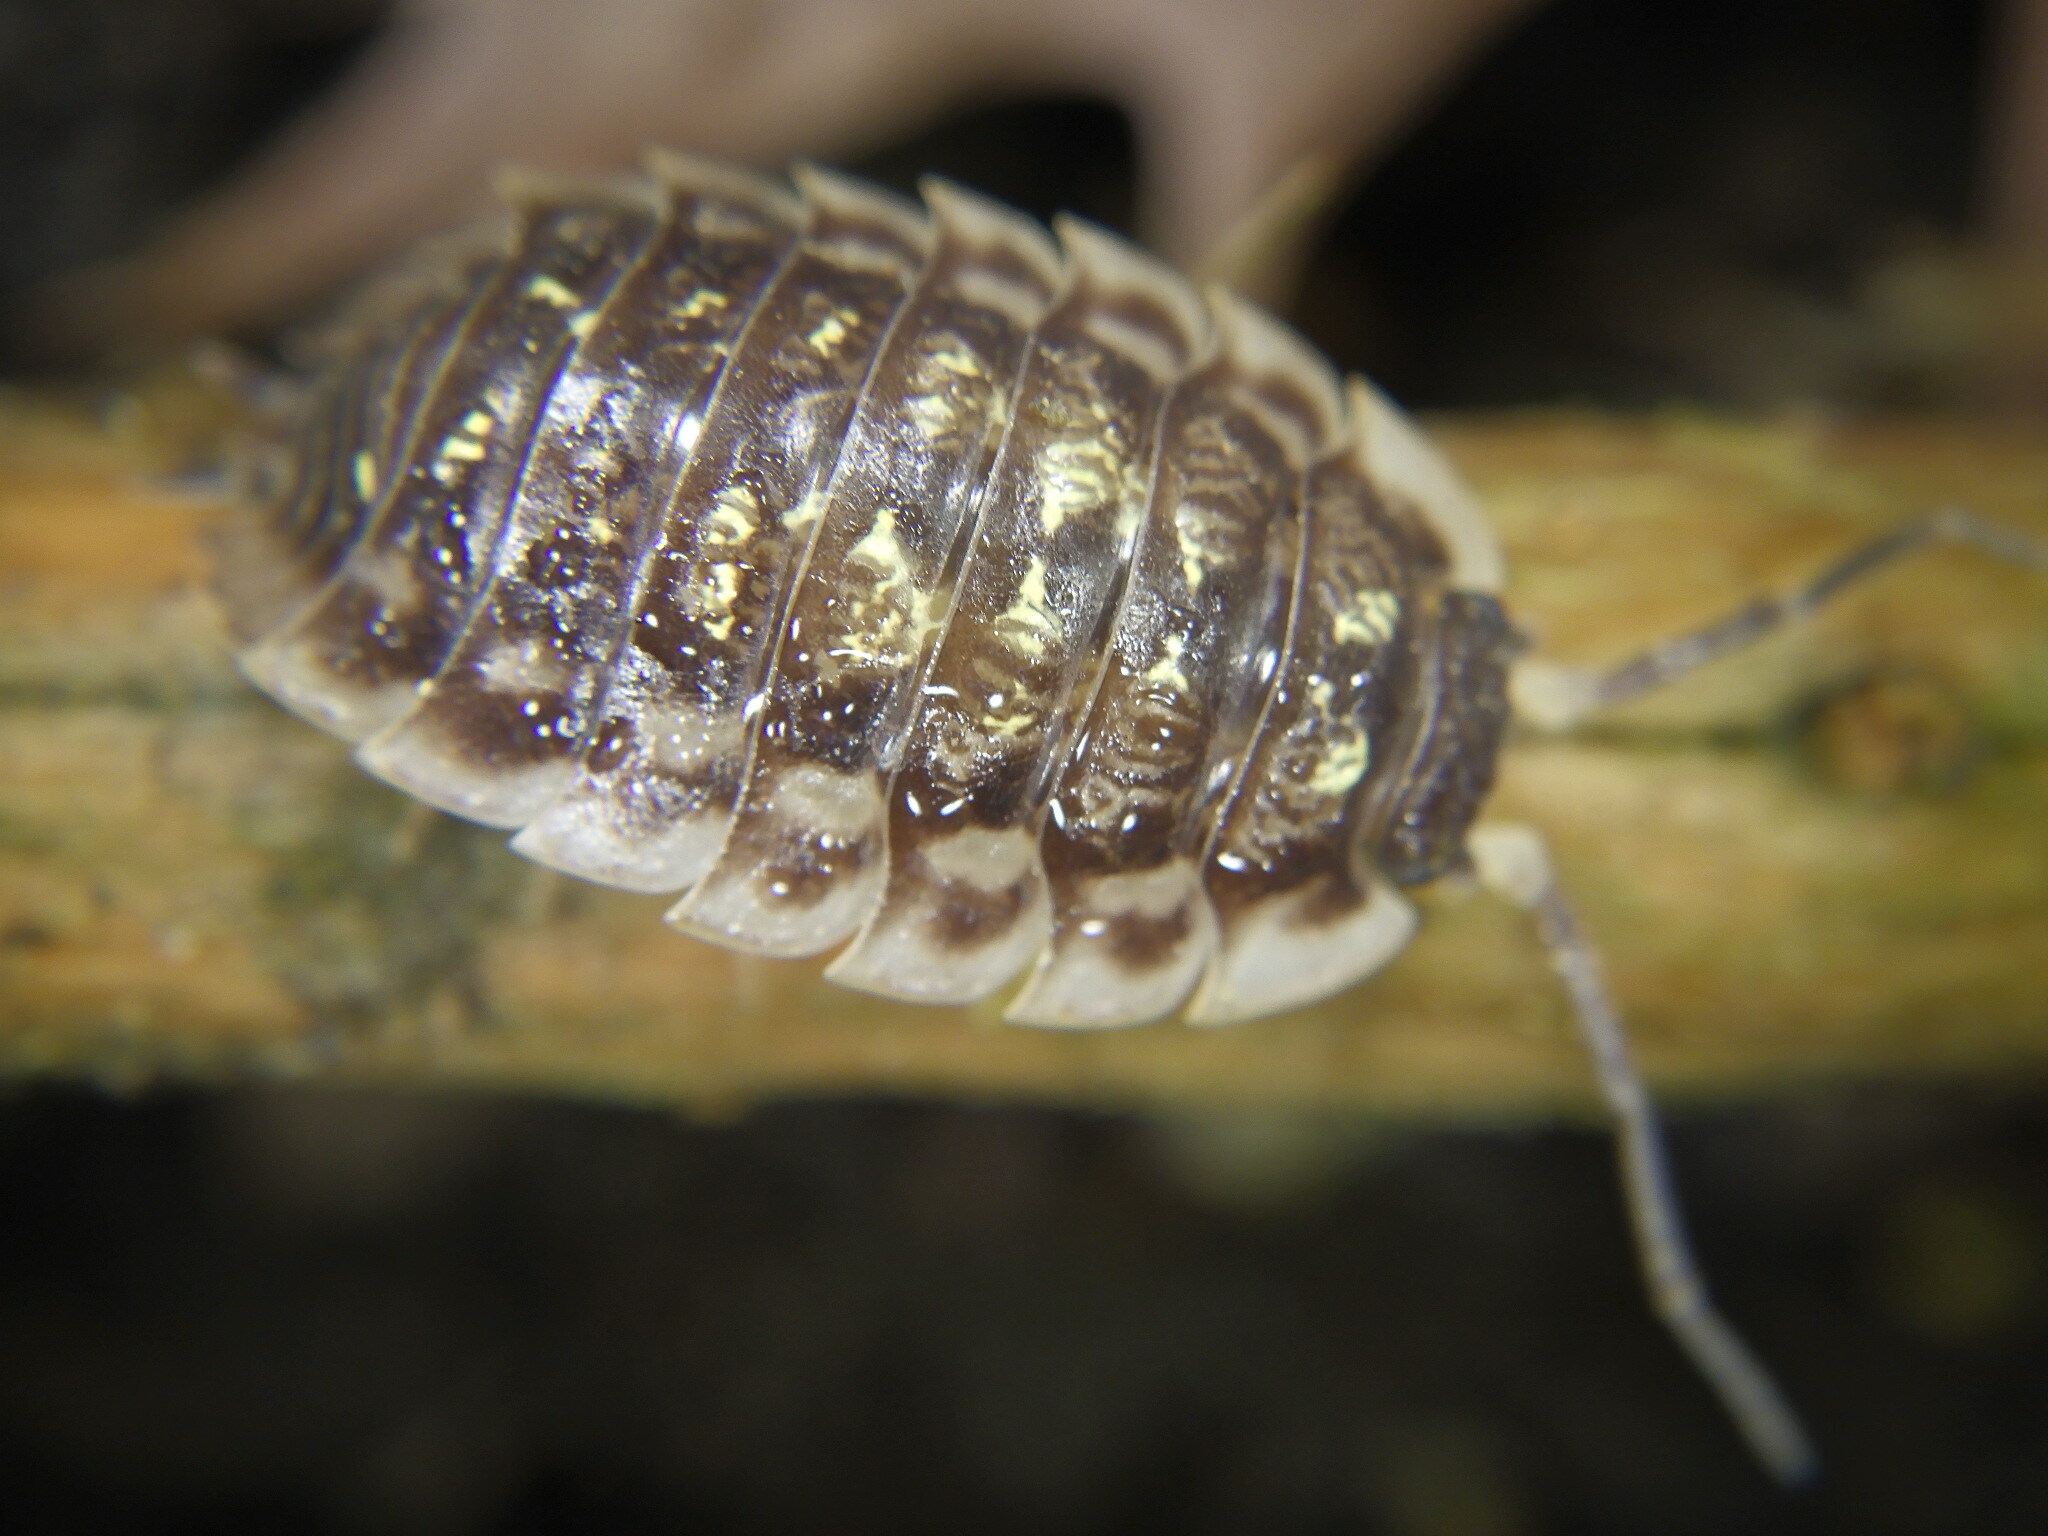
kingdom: Animalia
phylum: Arthropoda
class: Malacostraca
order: Isopoda
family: Oniscidae
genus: Oniscus
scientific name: Oniscus asellus
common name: Common shiny woodlouse
